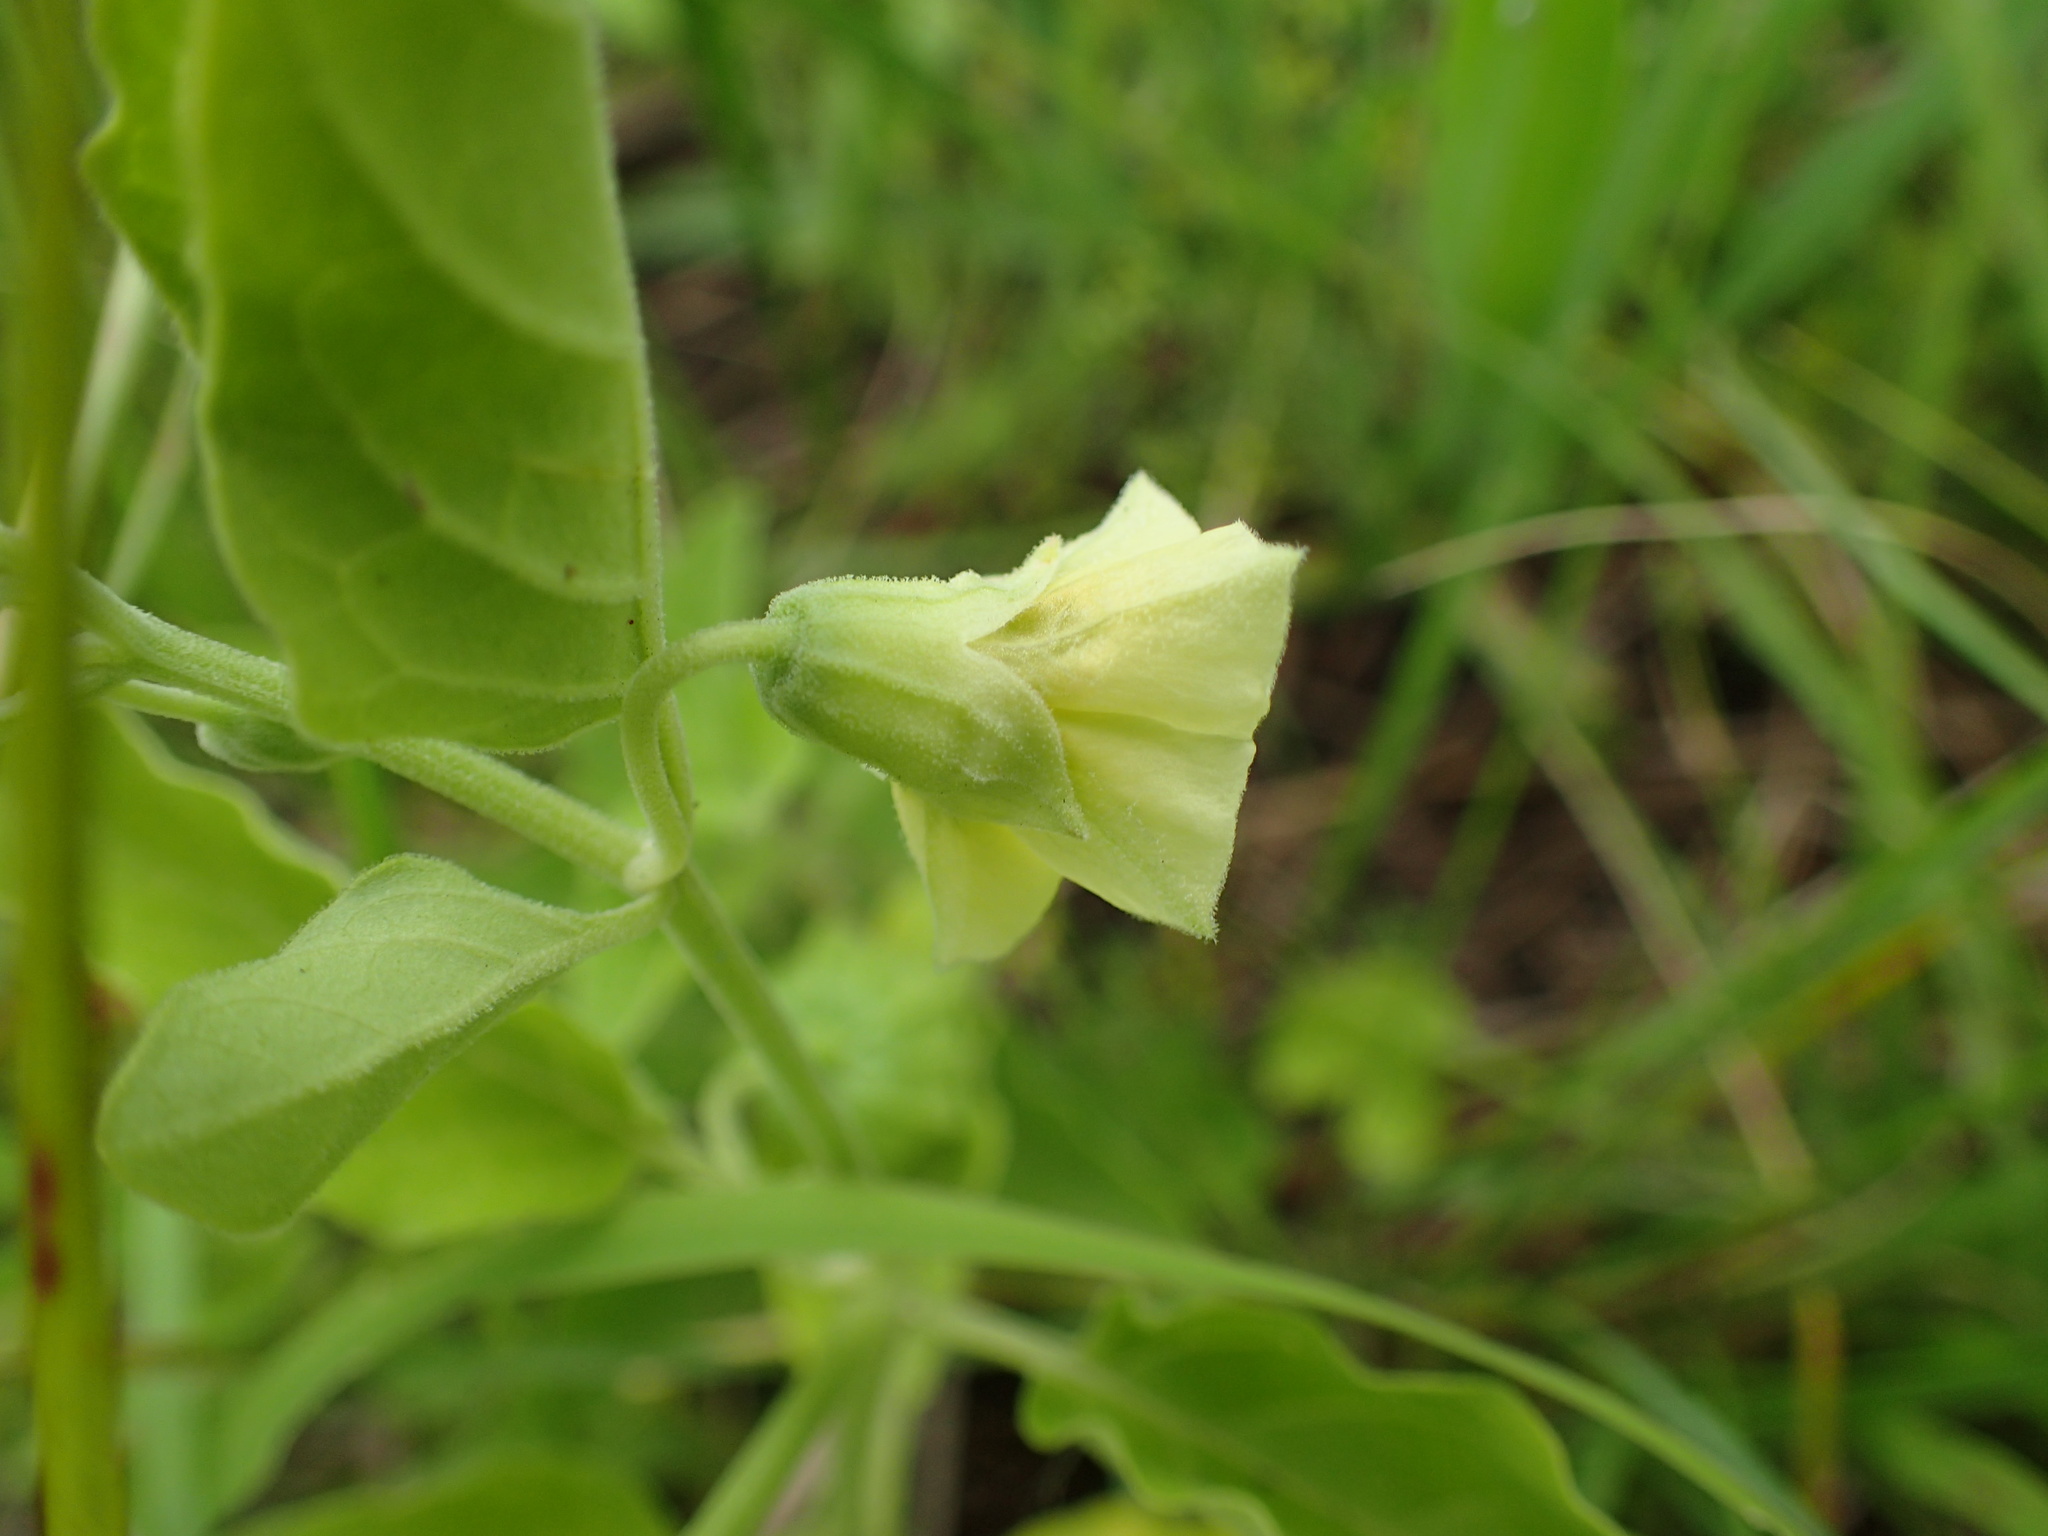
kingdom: Plantae
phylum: Tracheophyta
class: Magnoliopsida
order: Solanales
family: Solanaceae
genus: Physalis
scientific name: Physalis viscosa
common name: Stellate ground-cherry
